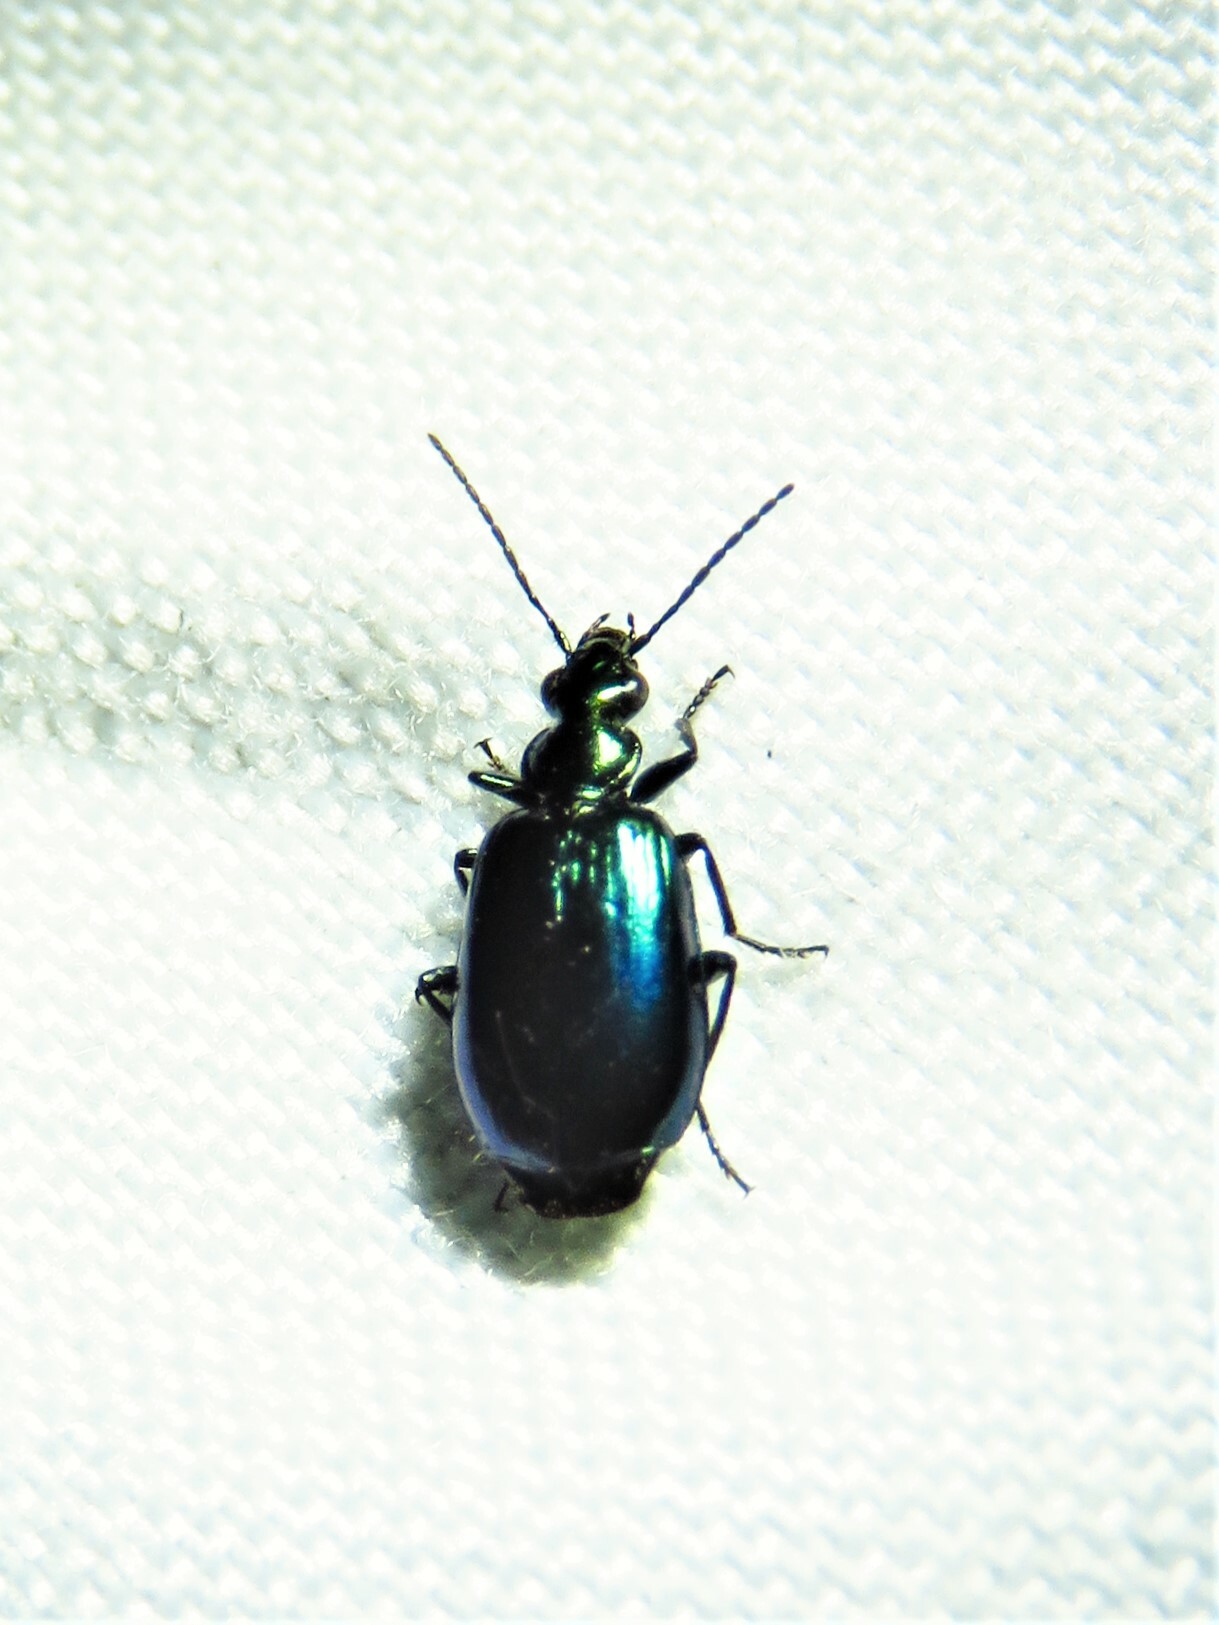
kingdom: Animalia
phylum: Arthropoda
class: Insecta
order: Coleoptera
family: Carabidae
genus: Lebia
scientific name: Lebia viridis
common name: Flower lebia beetle
